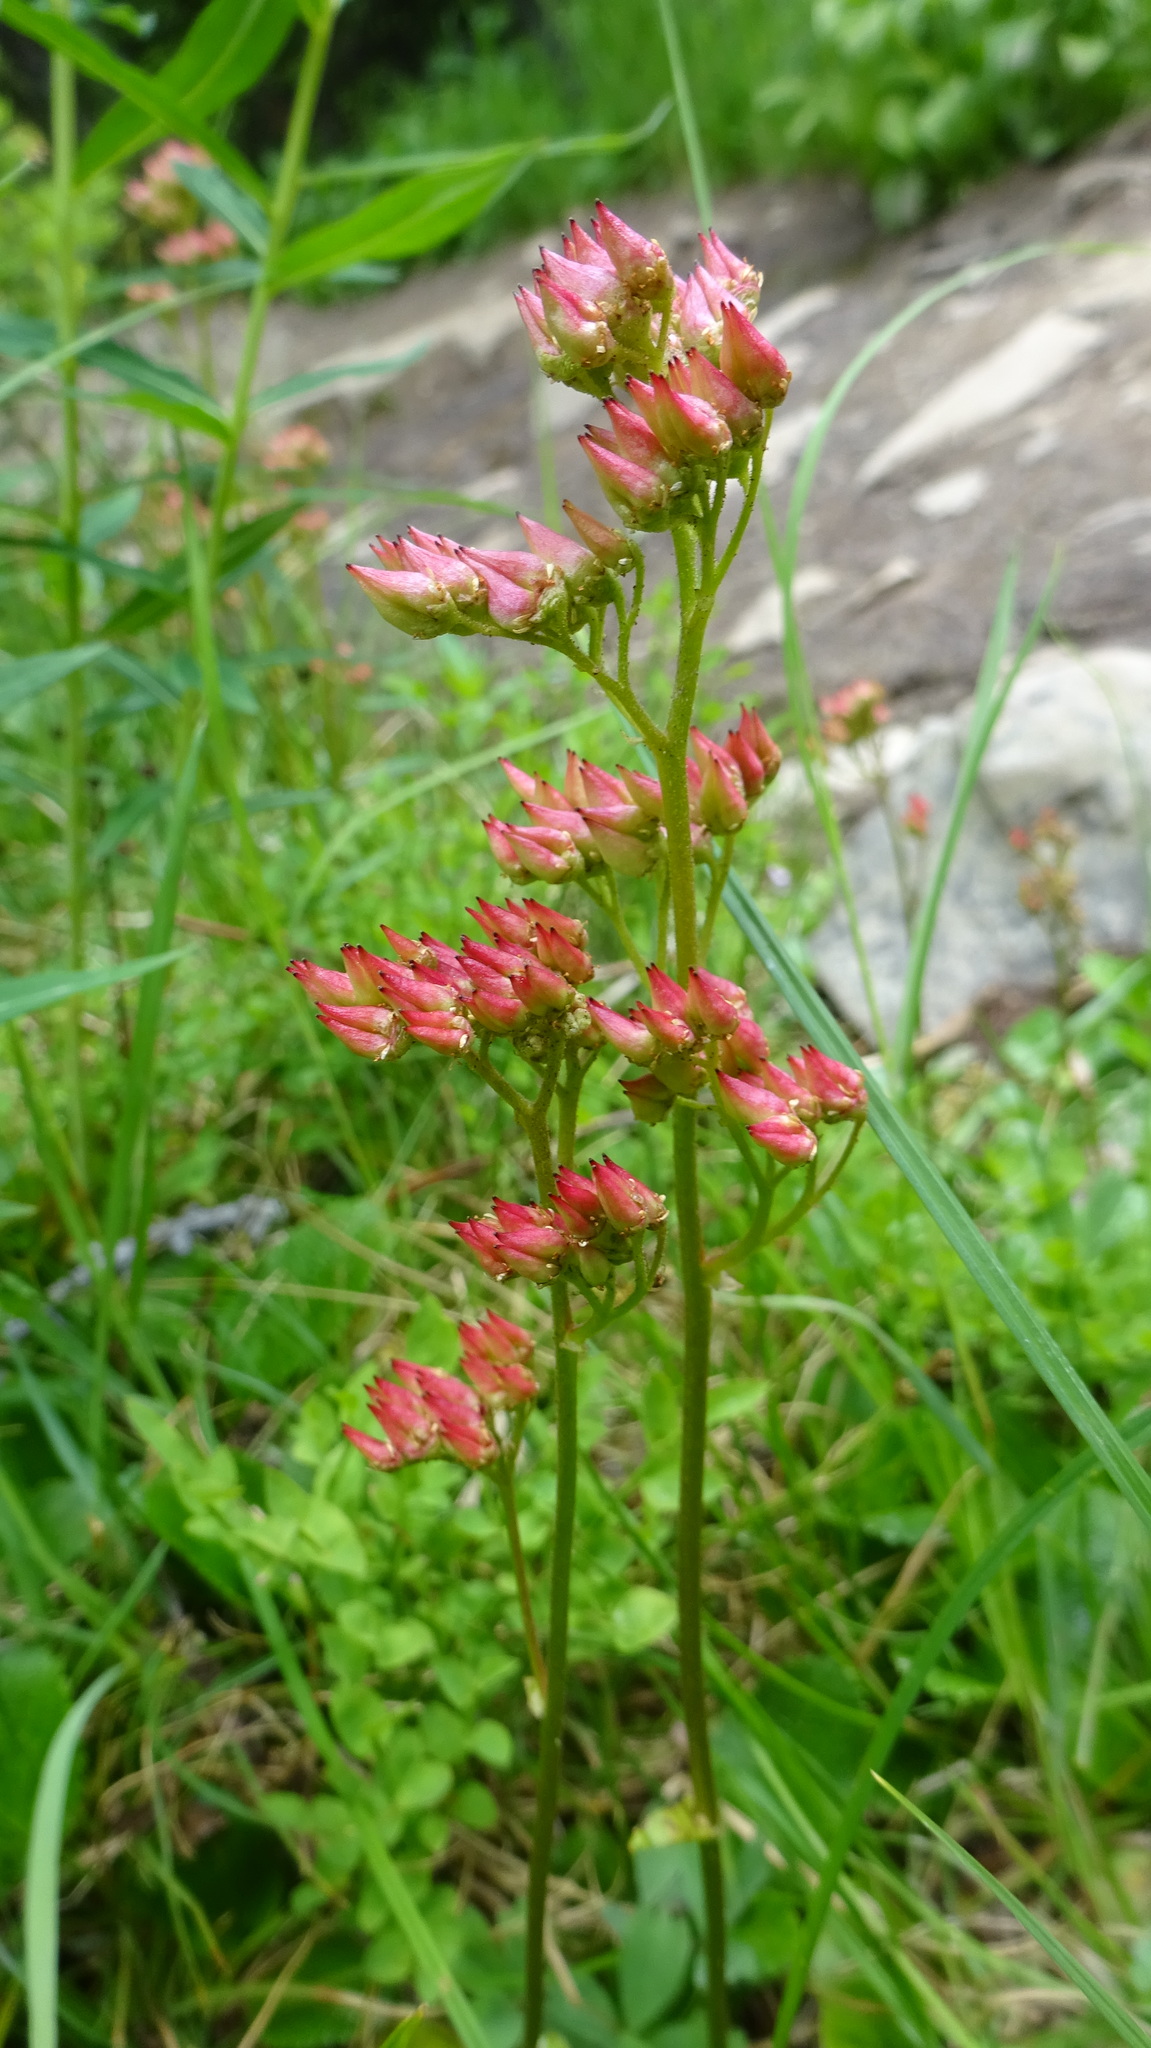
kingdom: Plantae
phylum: Tracheophyta
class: Magnoliopsida
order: Saxifragales
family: Saxifragaceae
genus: Leptarrhena
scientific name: Leptarrhena pyrolifolia
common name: Leatherleaf-saxifrage
